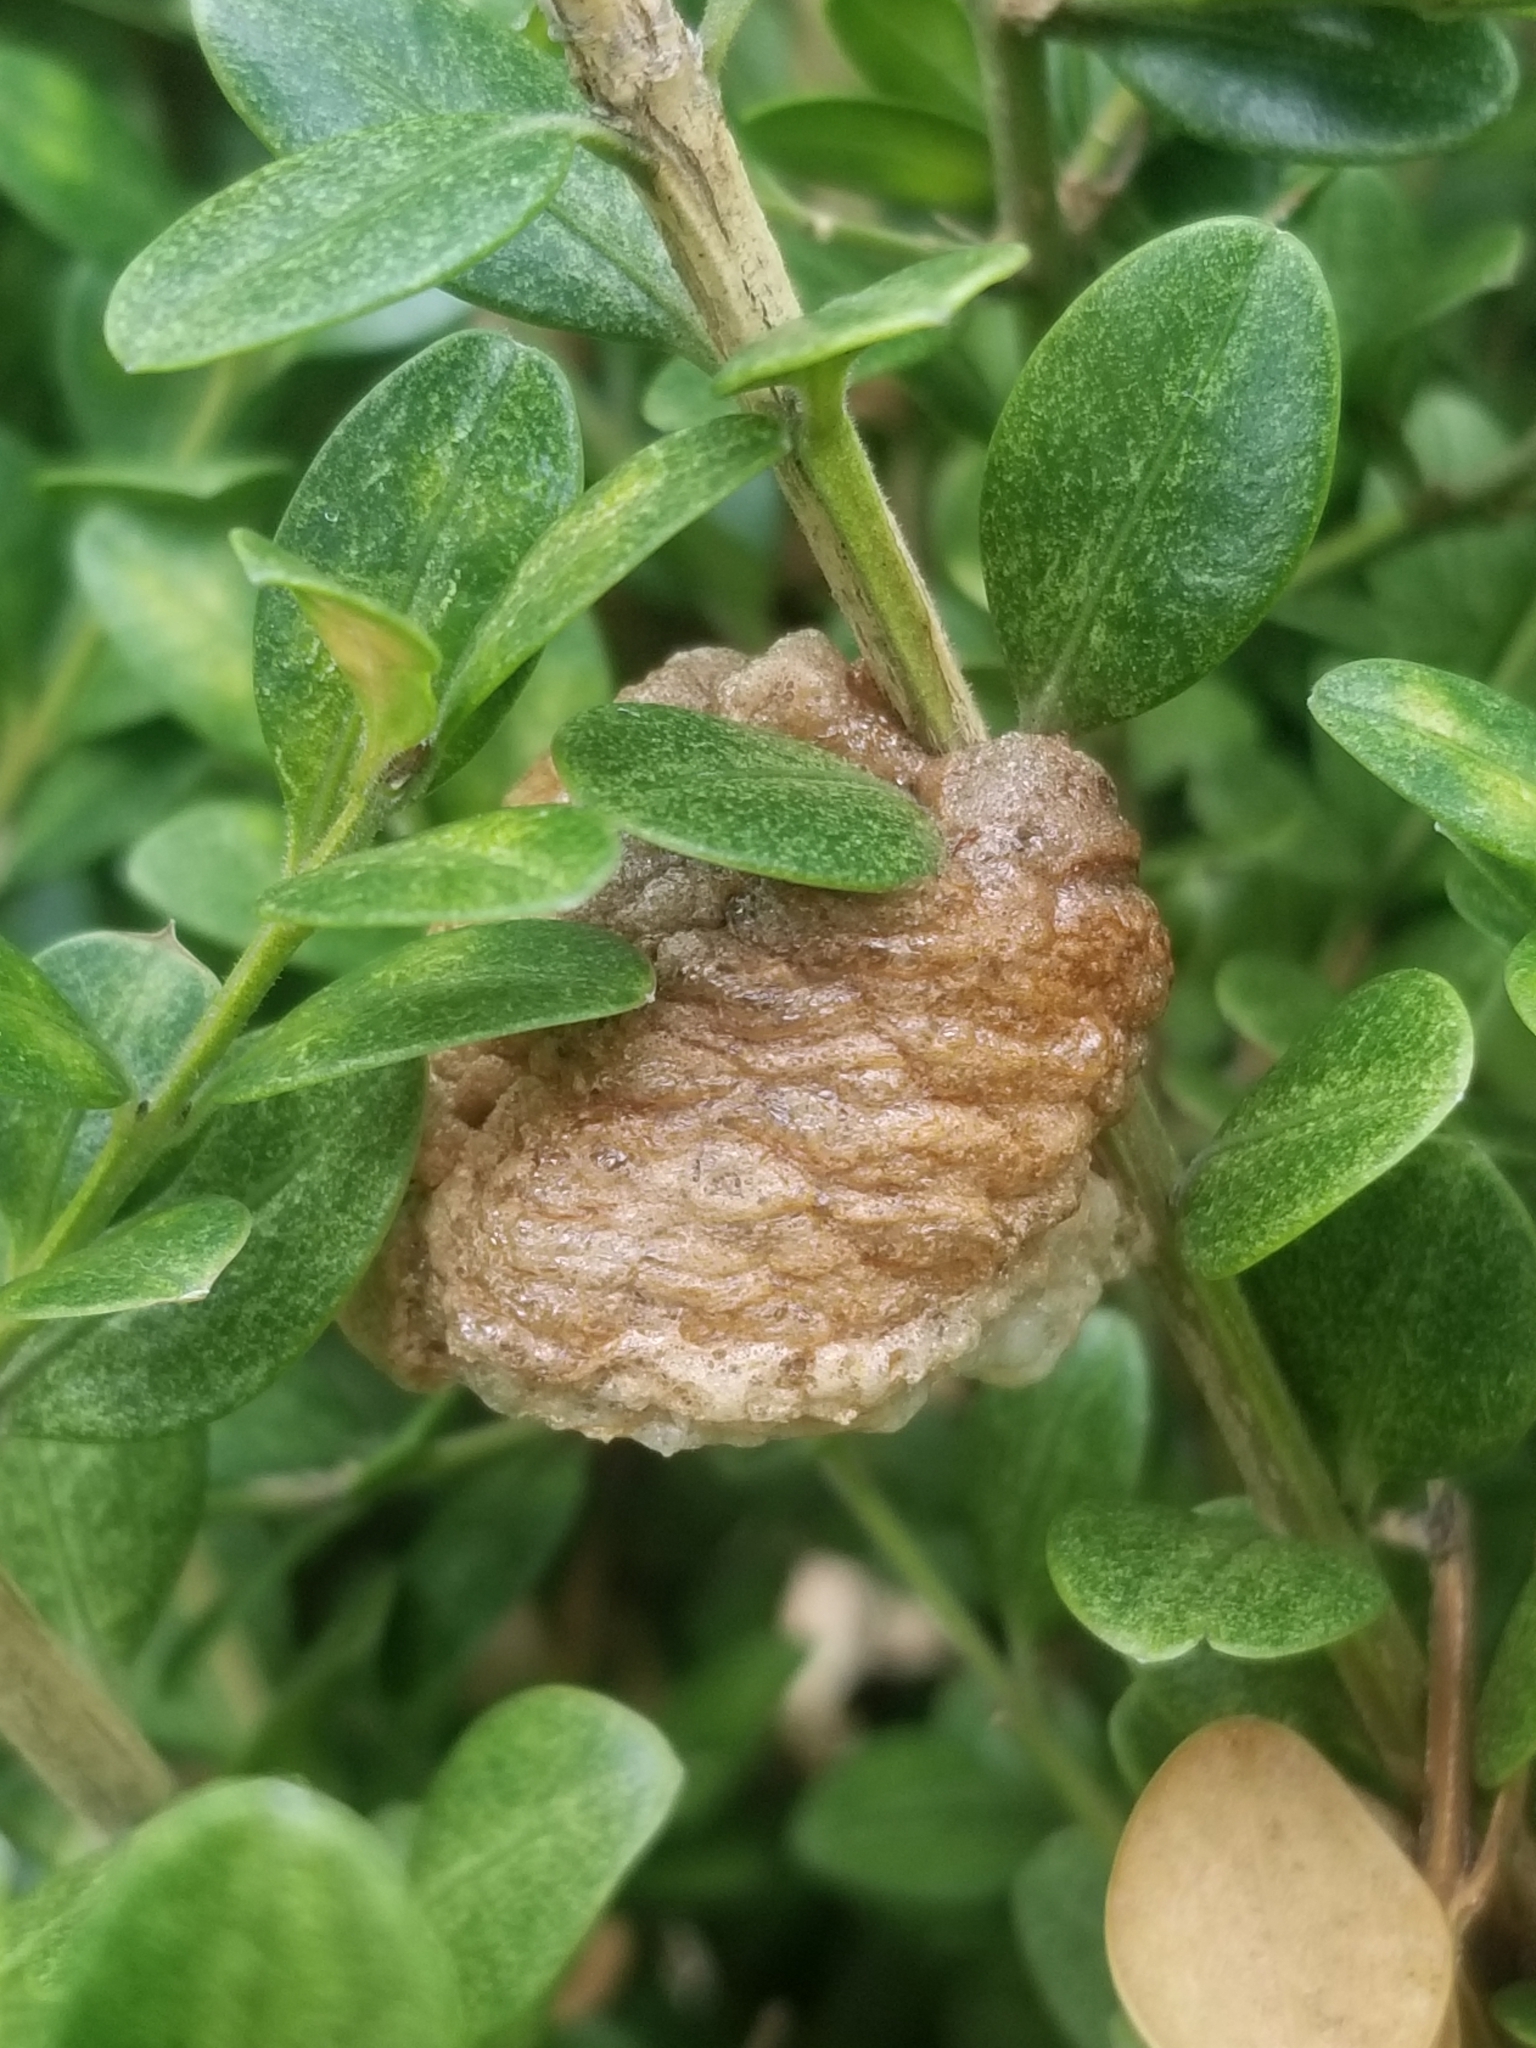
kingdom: Animalia
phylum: Arthropoda
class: Insecta
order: Mantodea
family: Mantidae
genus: Tenodera
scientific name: Tenodera sinensis
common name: Chinese mantis
